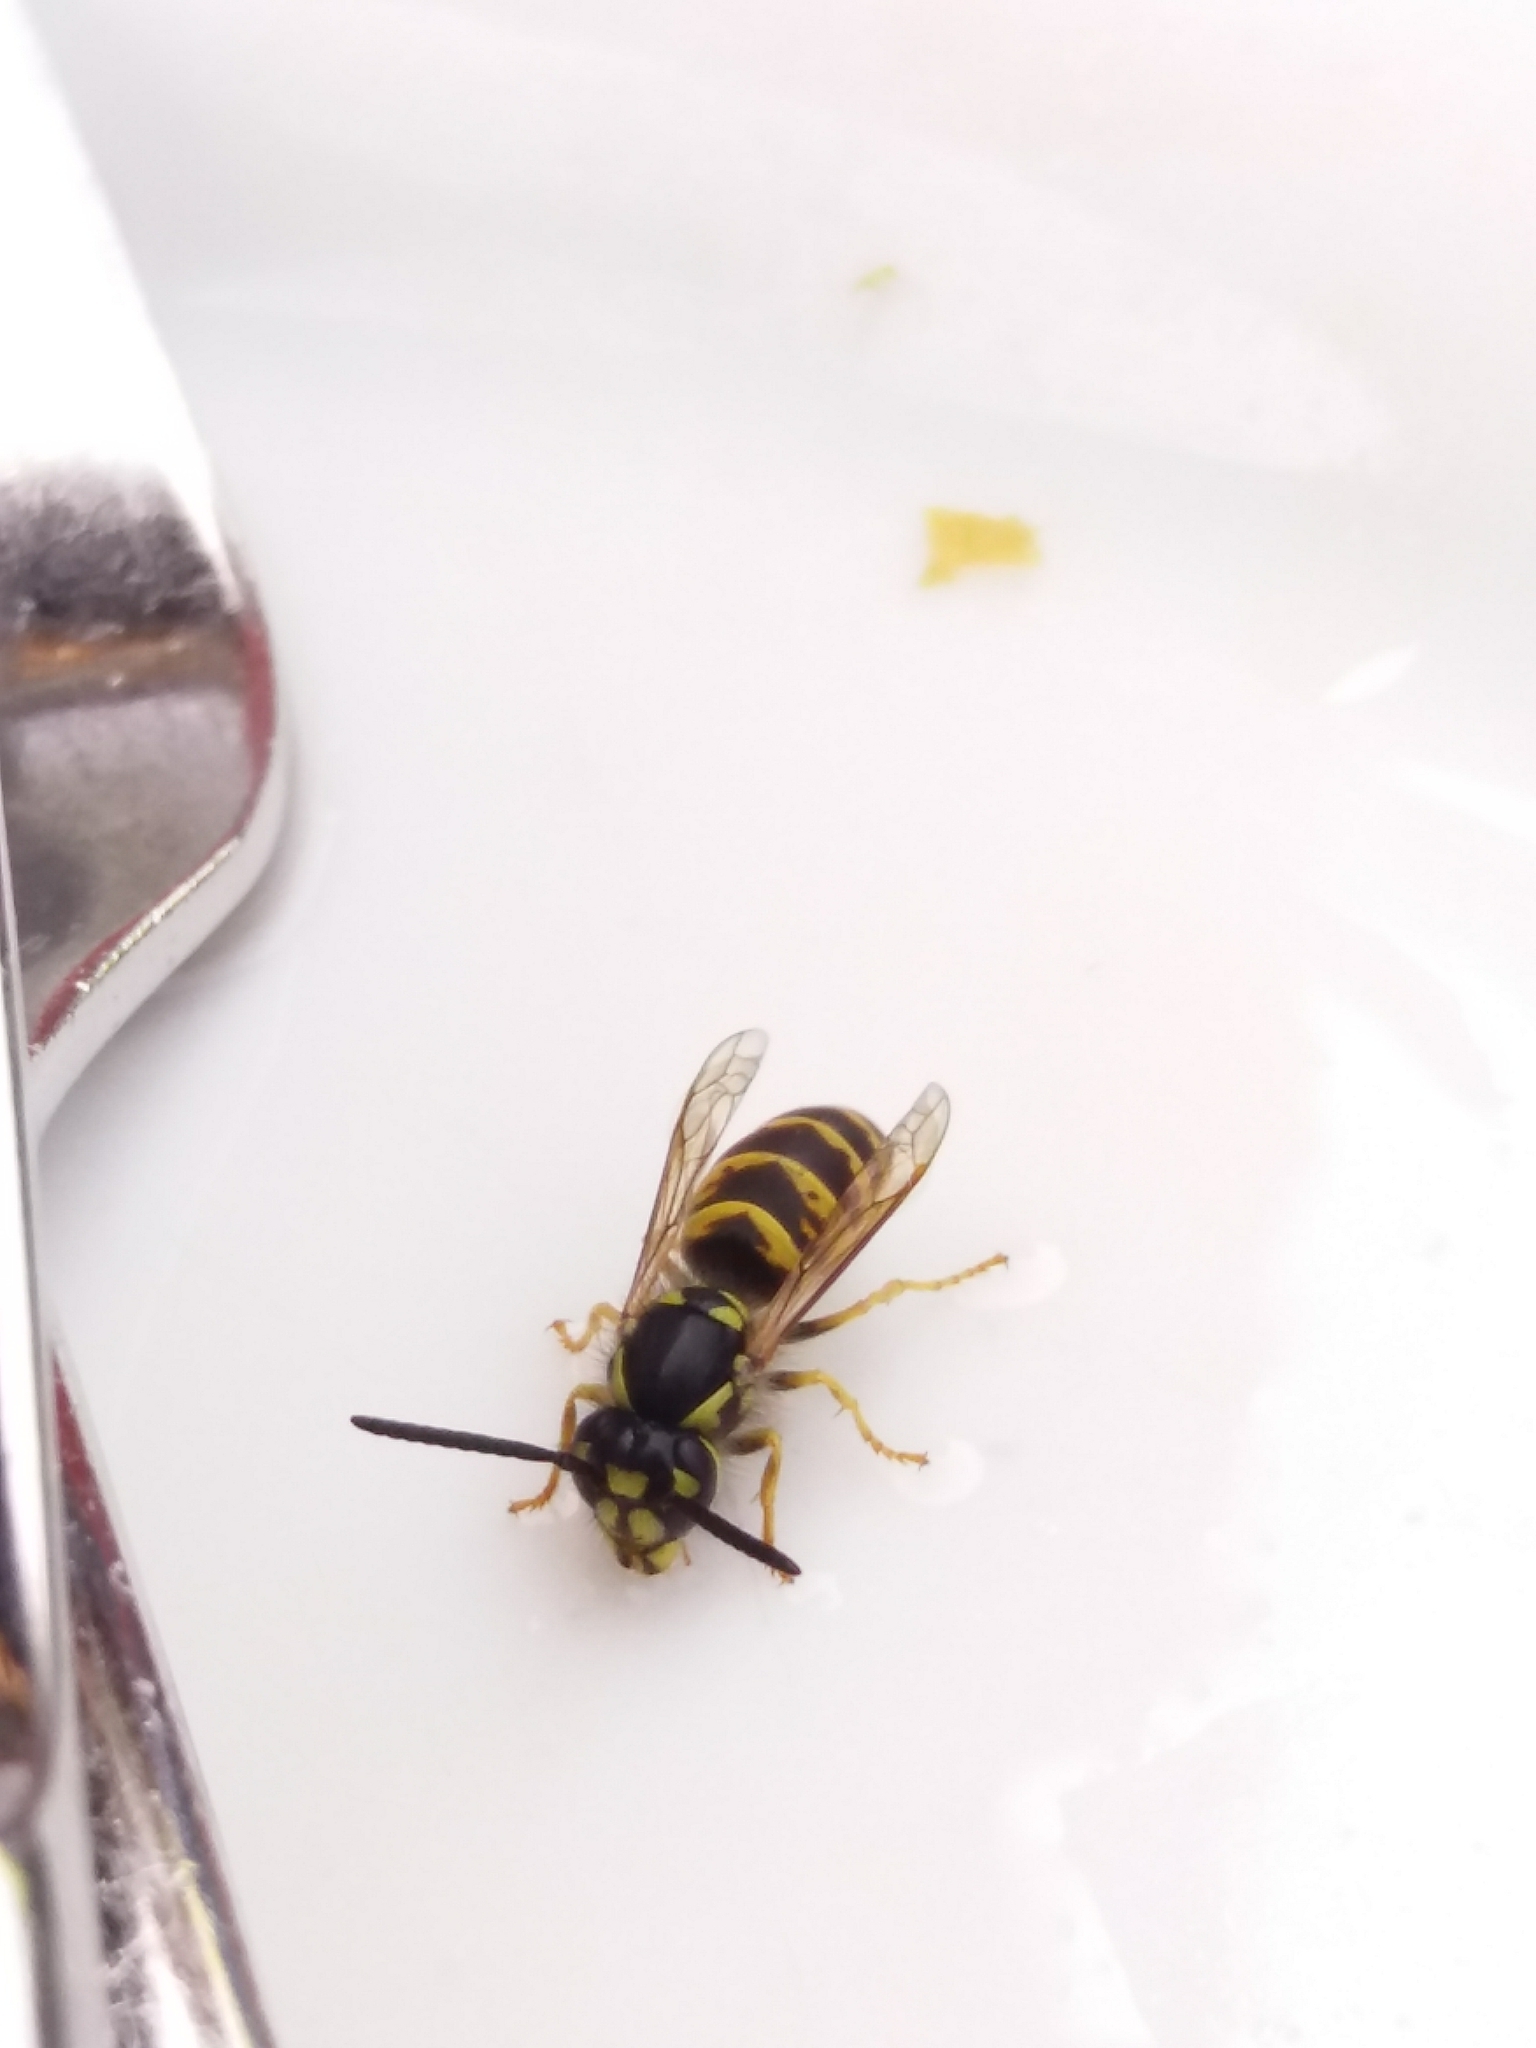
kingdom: Animalia
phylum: Arthropoda
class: Insecta
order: Hymenoptera
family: Vespidae
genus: Vespula
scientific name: Vespula vulgaris
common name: Common wasp
